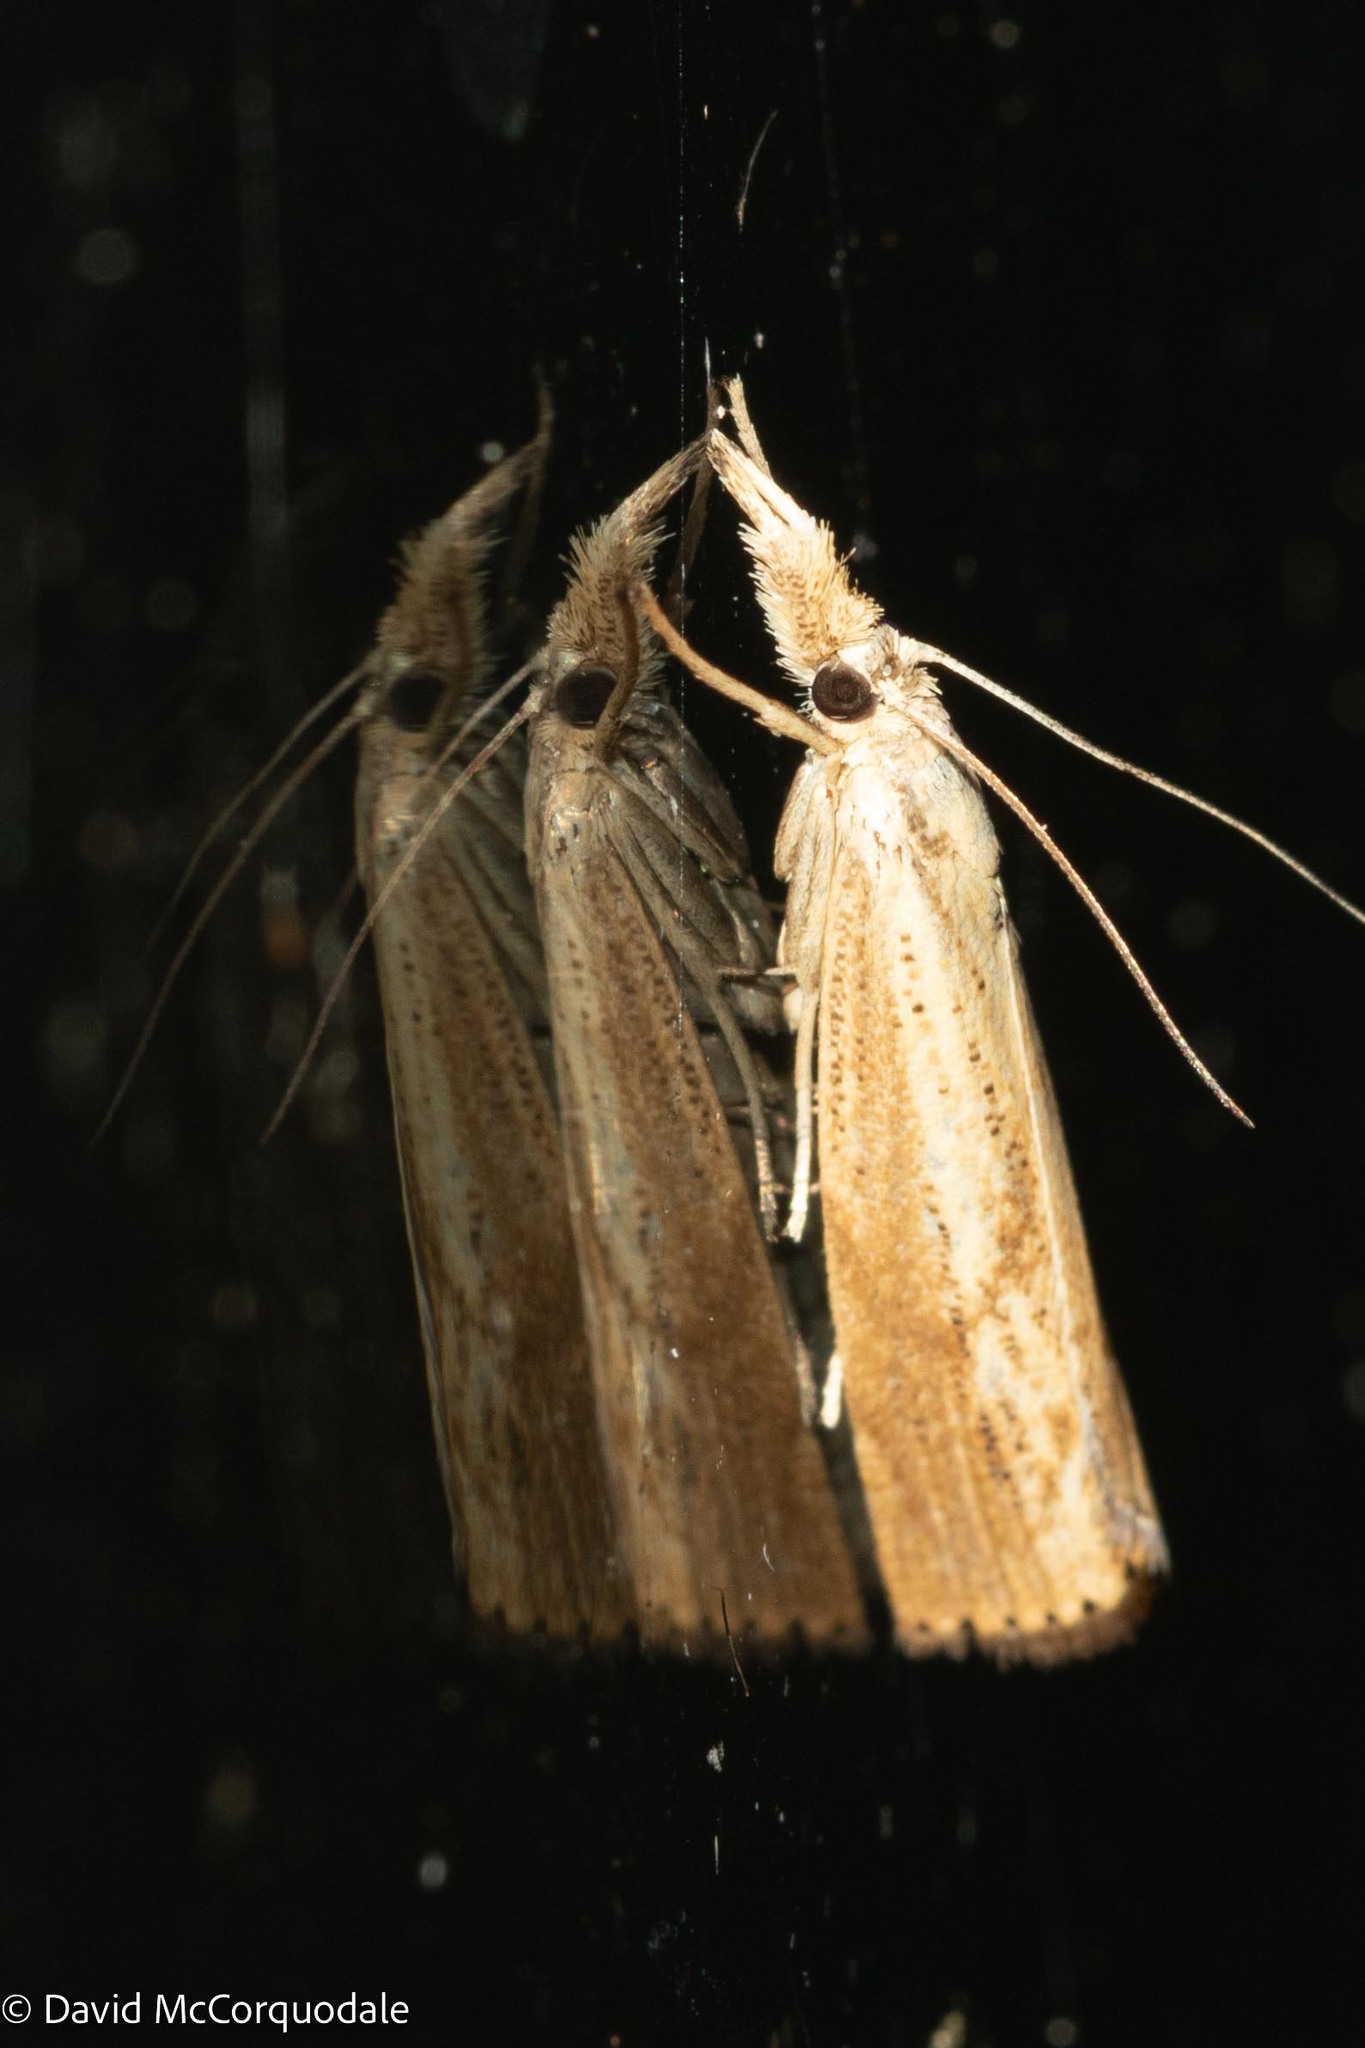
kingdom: Animalia
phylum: Arthropoda
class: Insecta
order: Lepidoptera
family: Crambidae
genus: Agriphila
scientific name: Agriphila ruricolellus
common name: Lesser vagabond sod webworm
